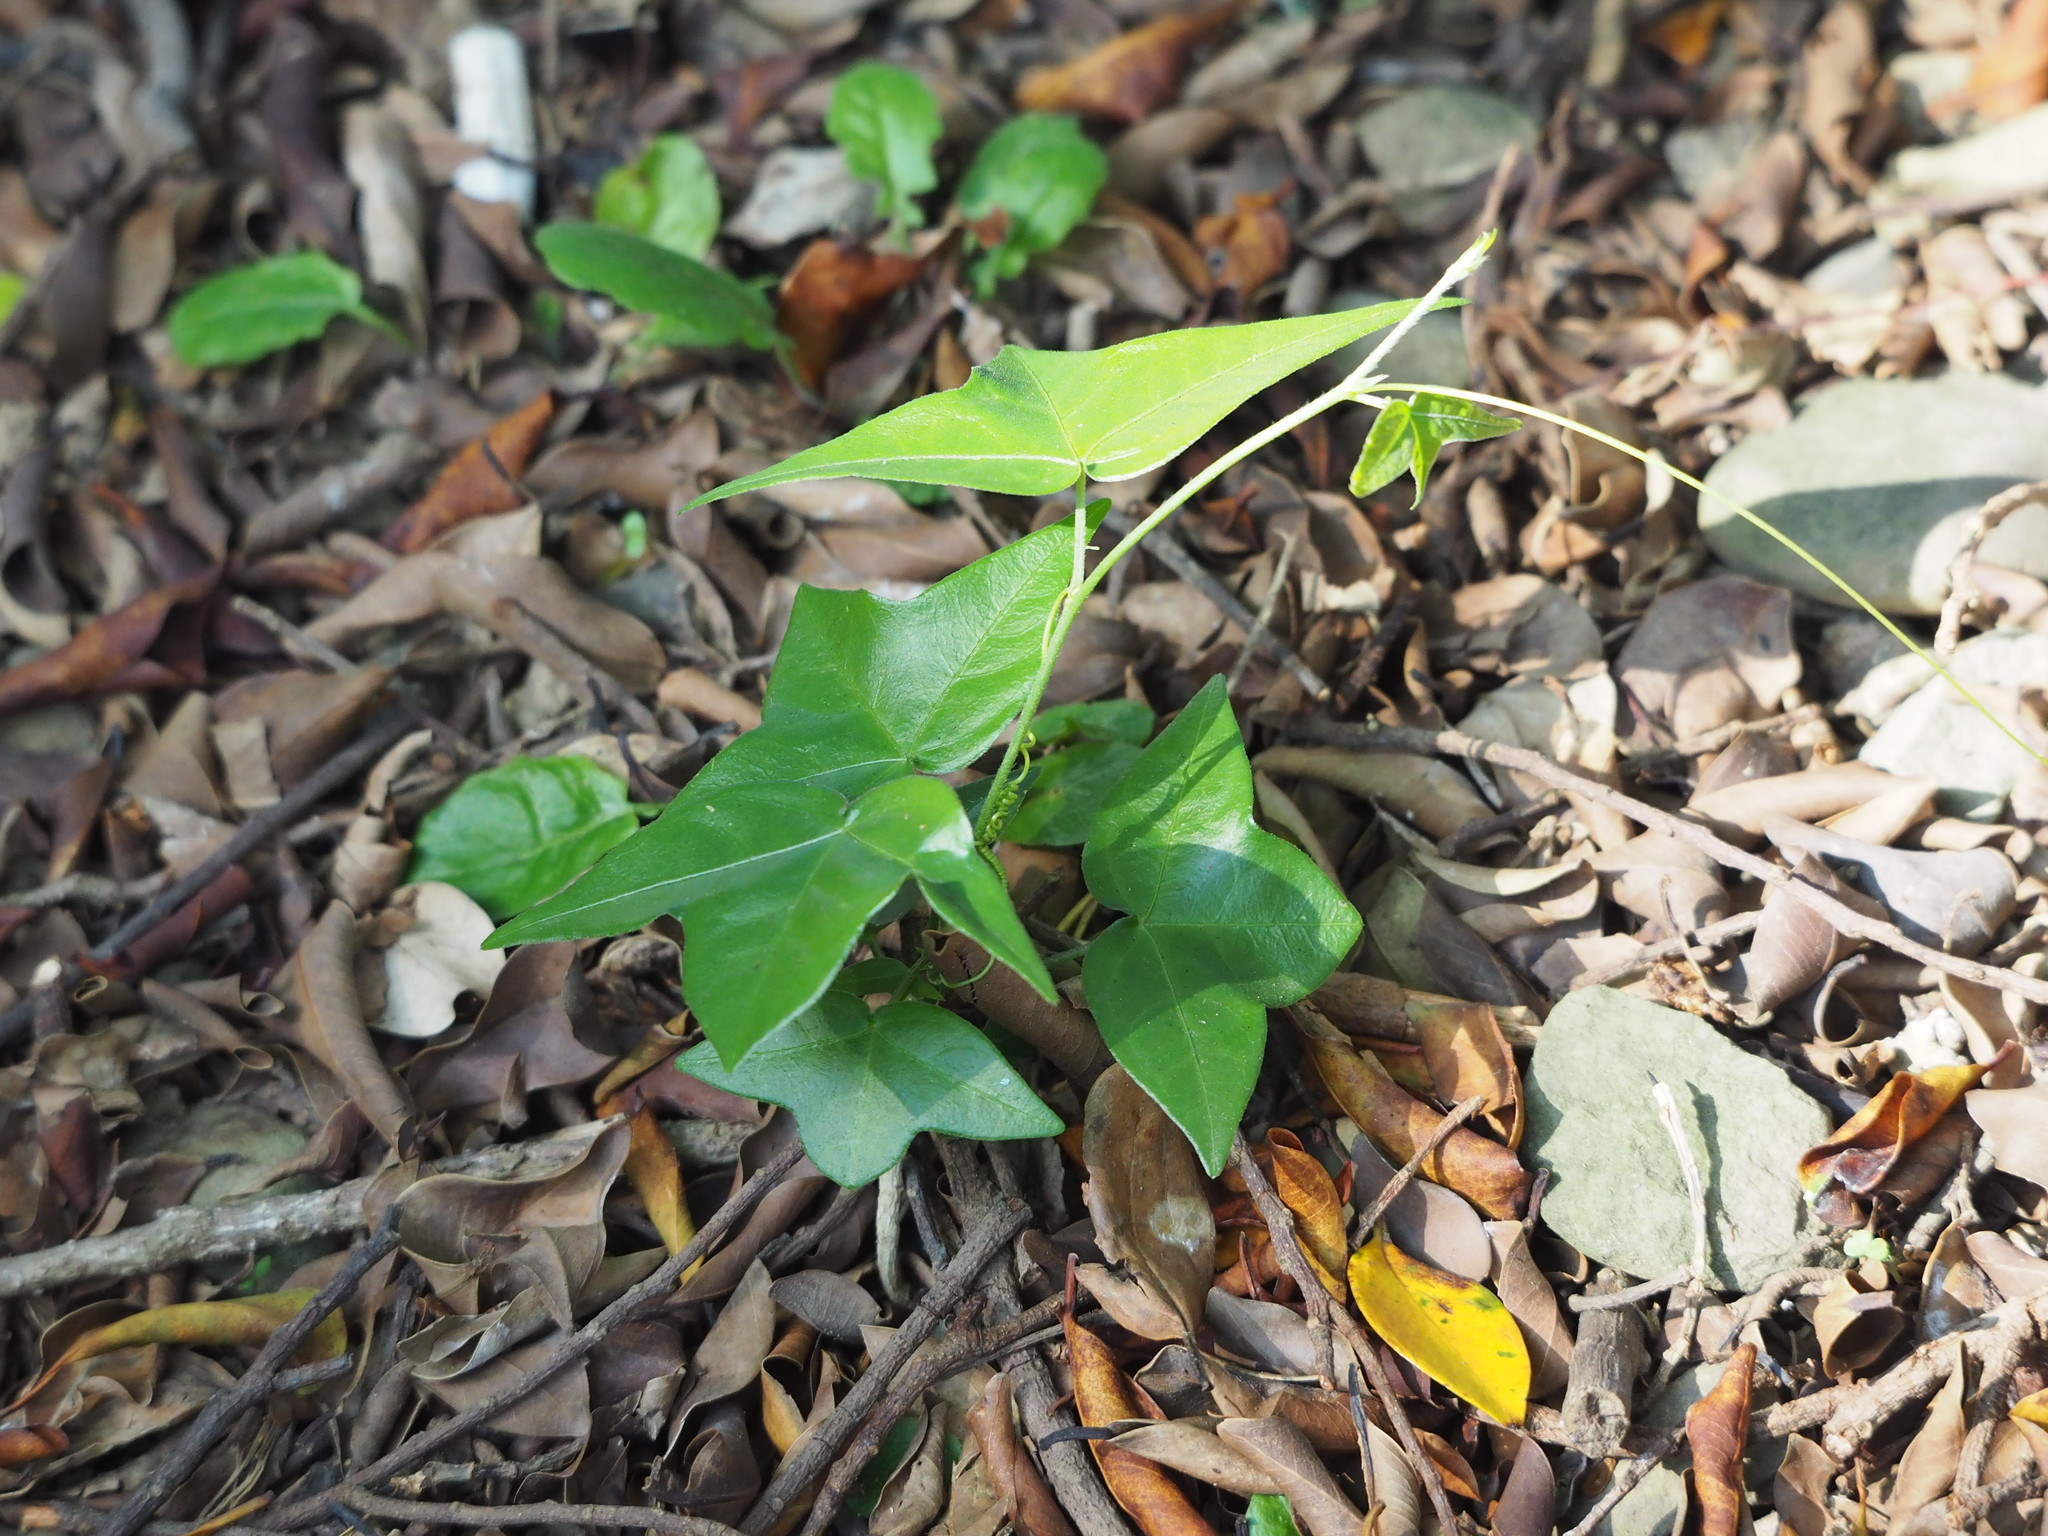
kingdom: Plantae
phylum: Tracheophyta
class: Magnoliopsida
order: Malpighiales
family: Passifloraceae
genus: Passiflora
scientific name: Passiflora suberosa
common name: Wild passionfruit
